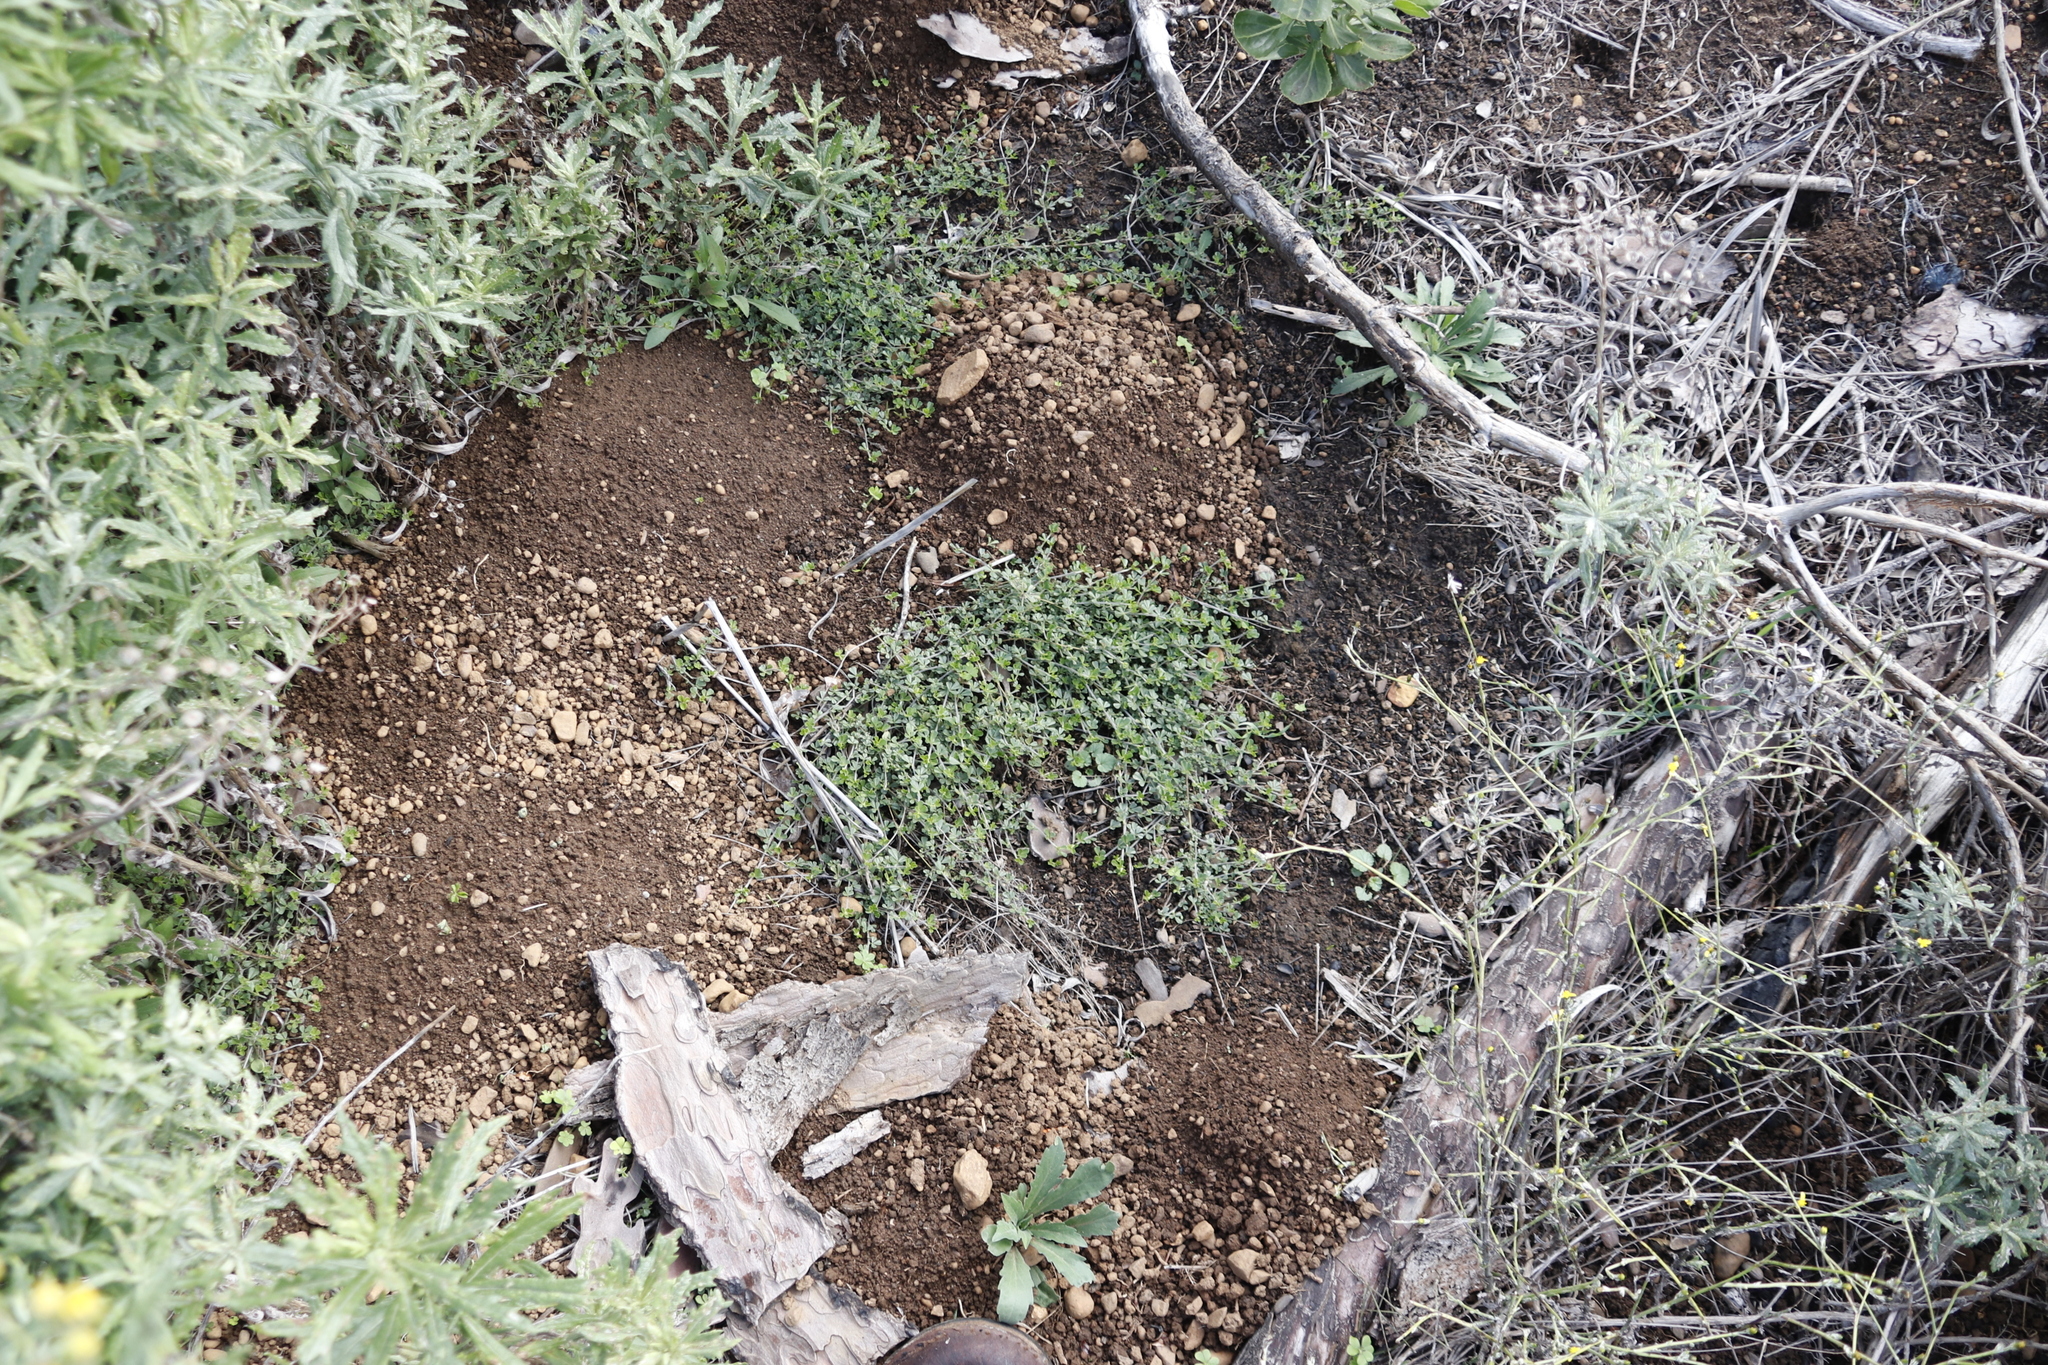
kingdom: Plantae
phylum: Tracheophyta
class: Magnoliopsida
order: Fabales
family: Fabaceae
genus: Psoralea
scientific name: Psoralea
